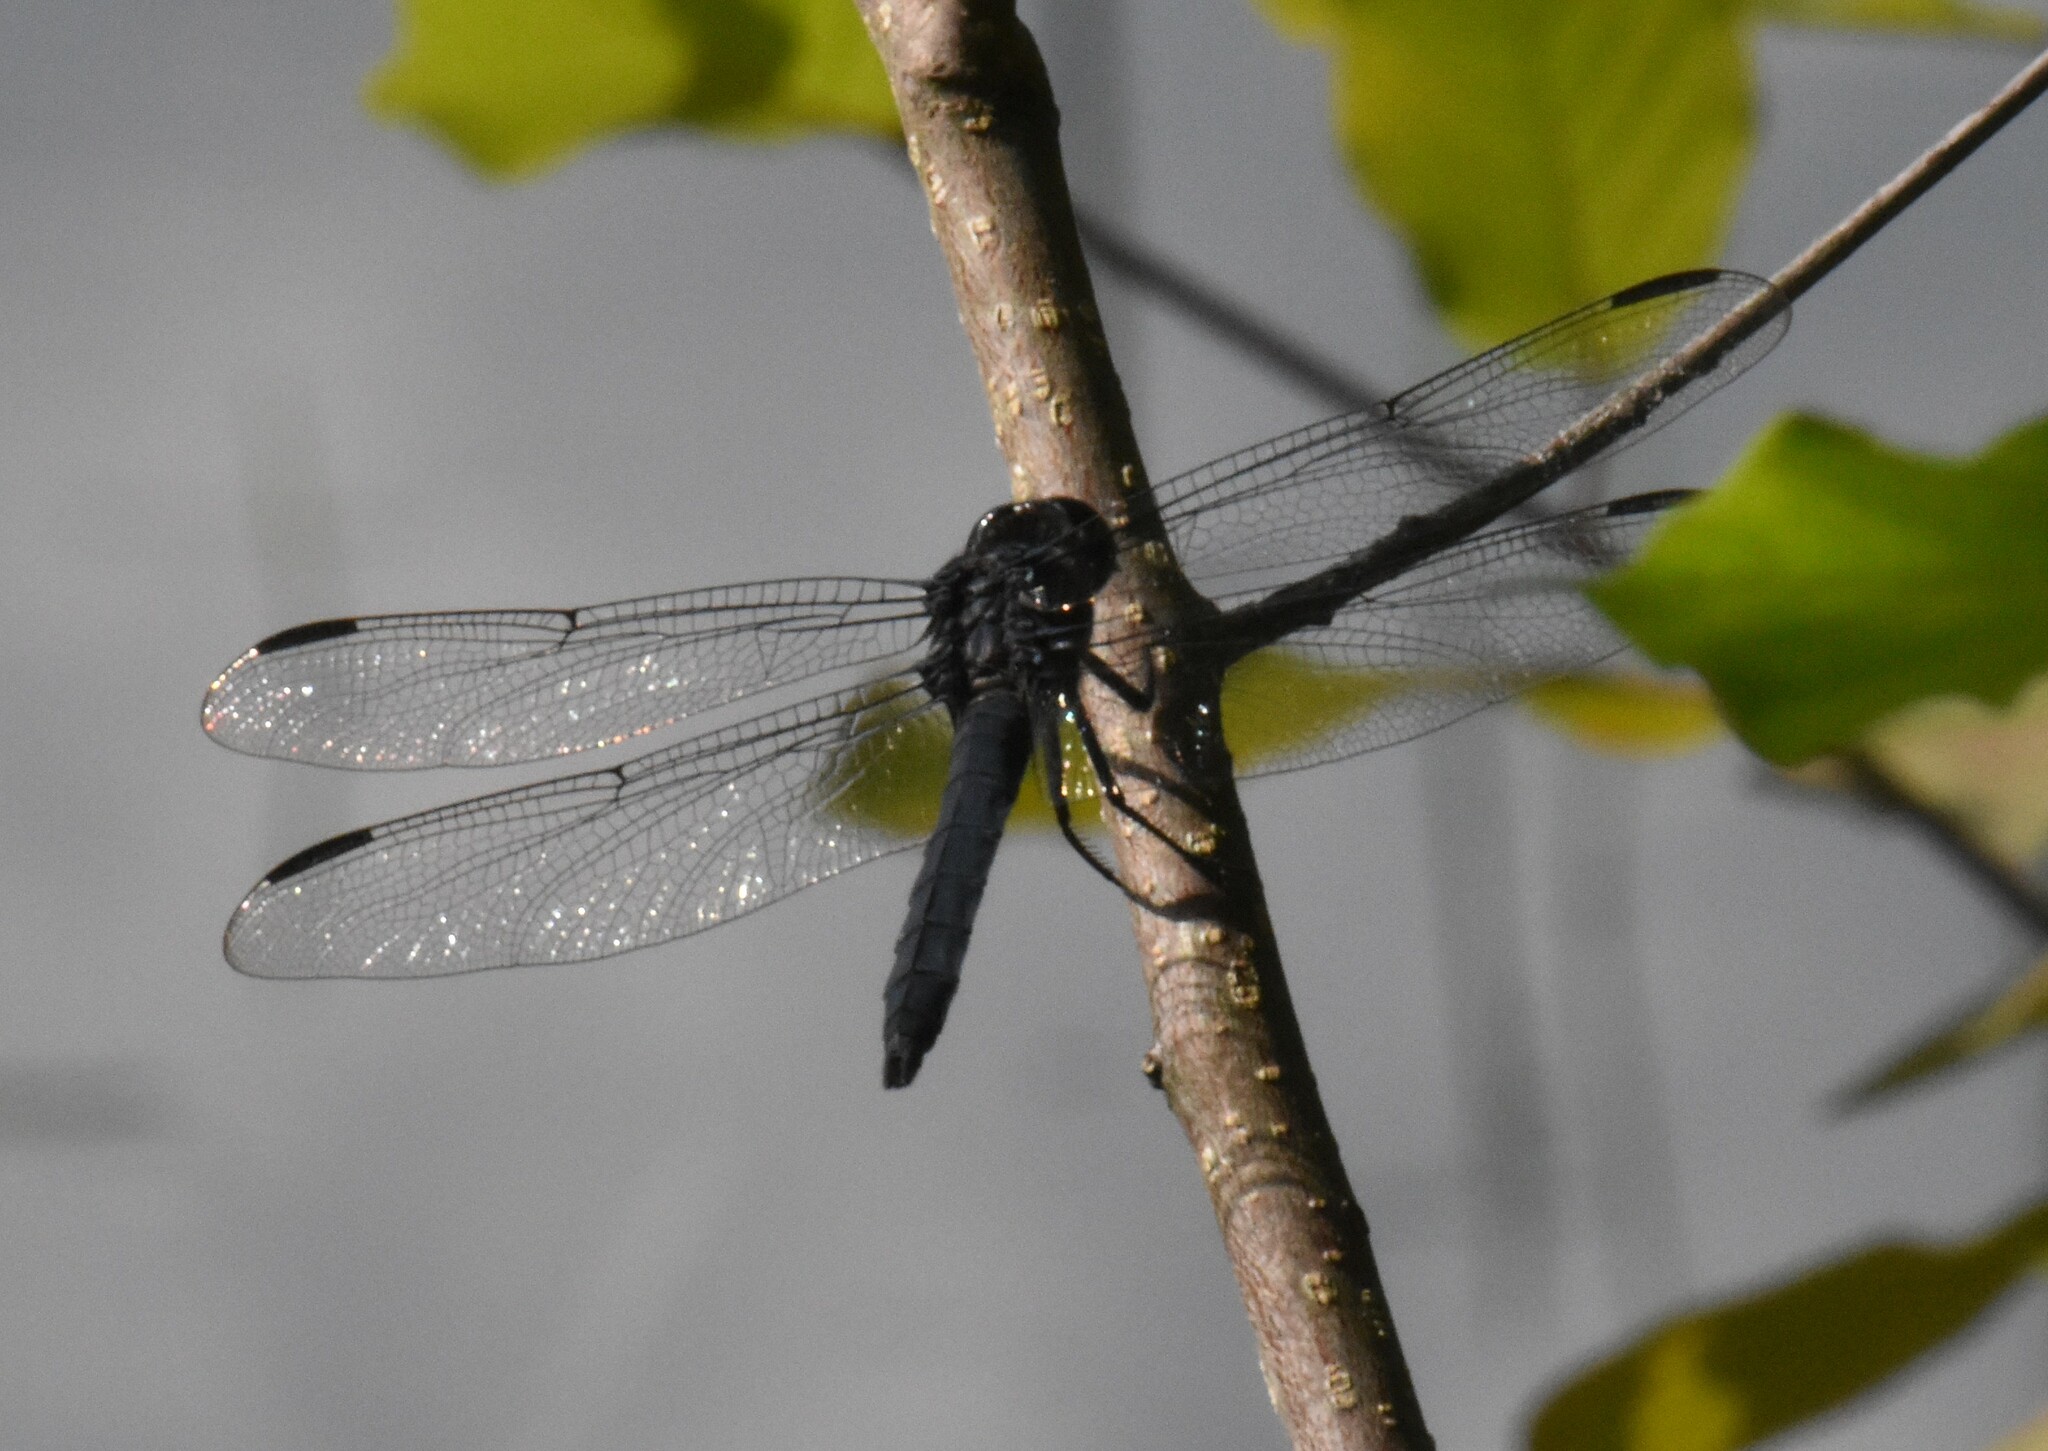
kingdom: Animalia
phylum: Arthropoda
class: Insecta
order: Odonata
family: Libellulidae
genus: Libellula
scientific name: Libellula incesta
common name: Slaty skimmer
